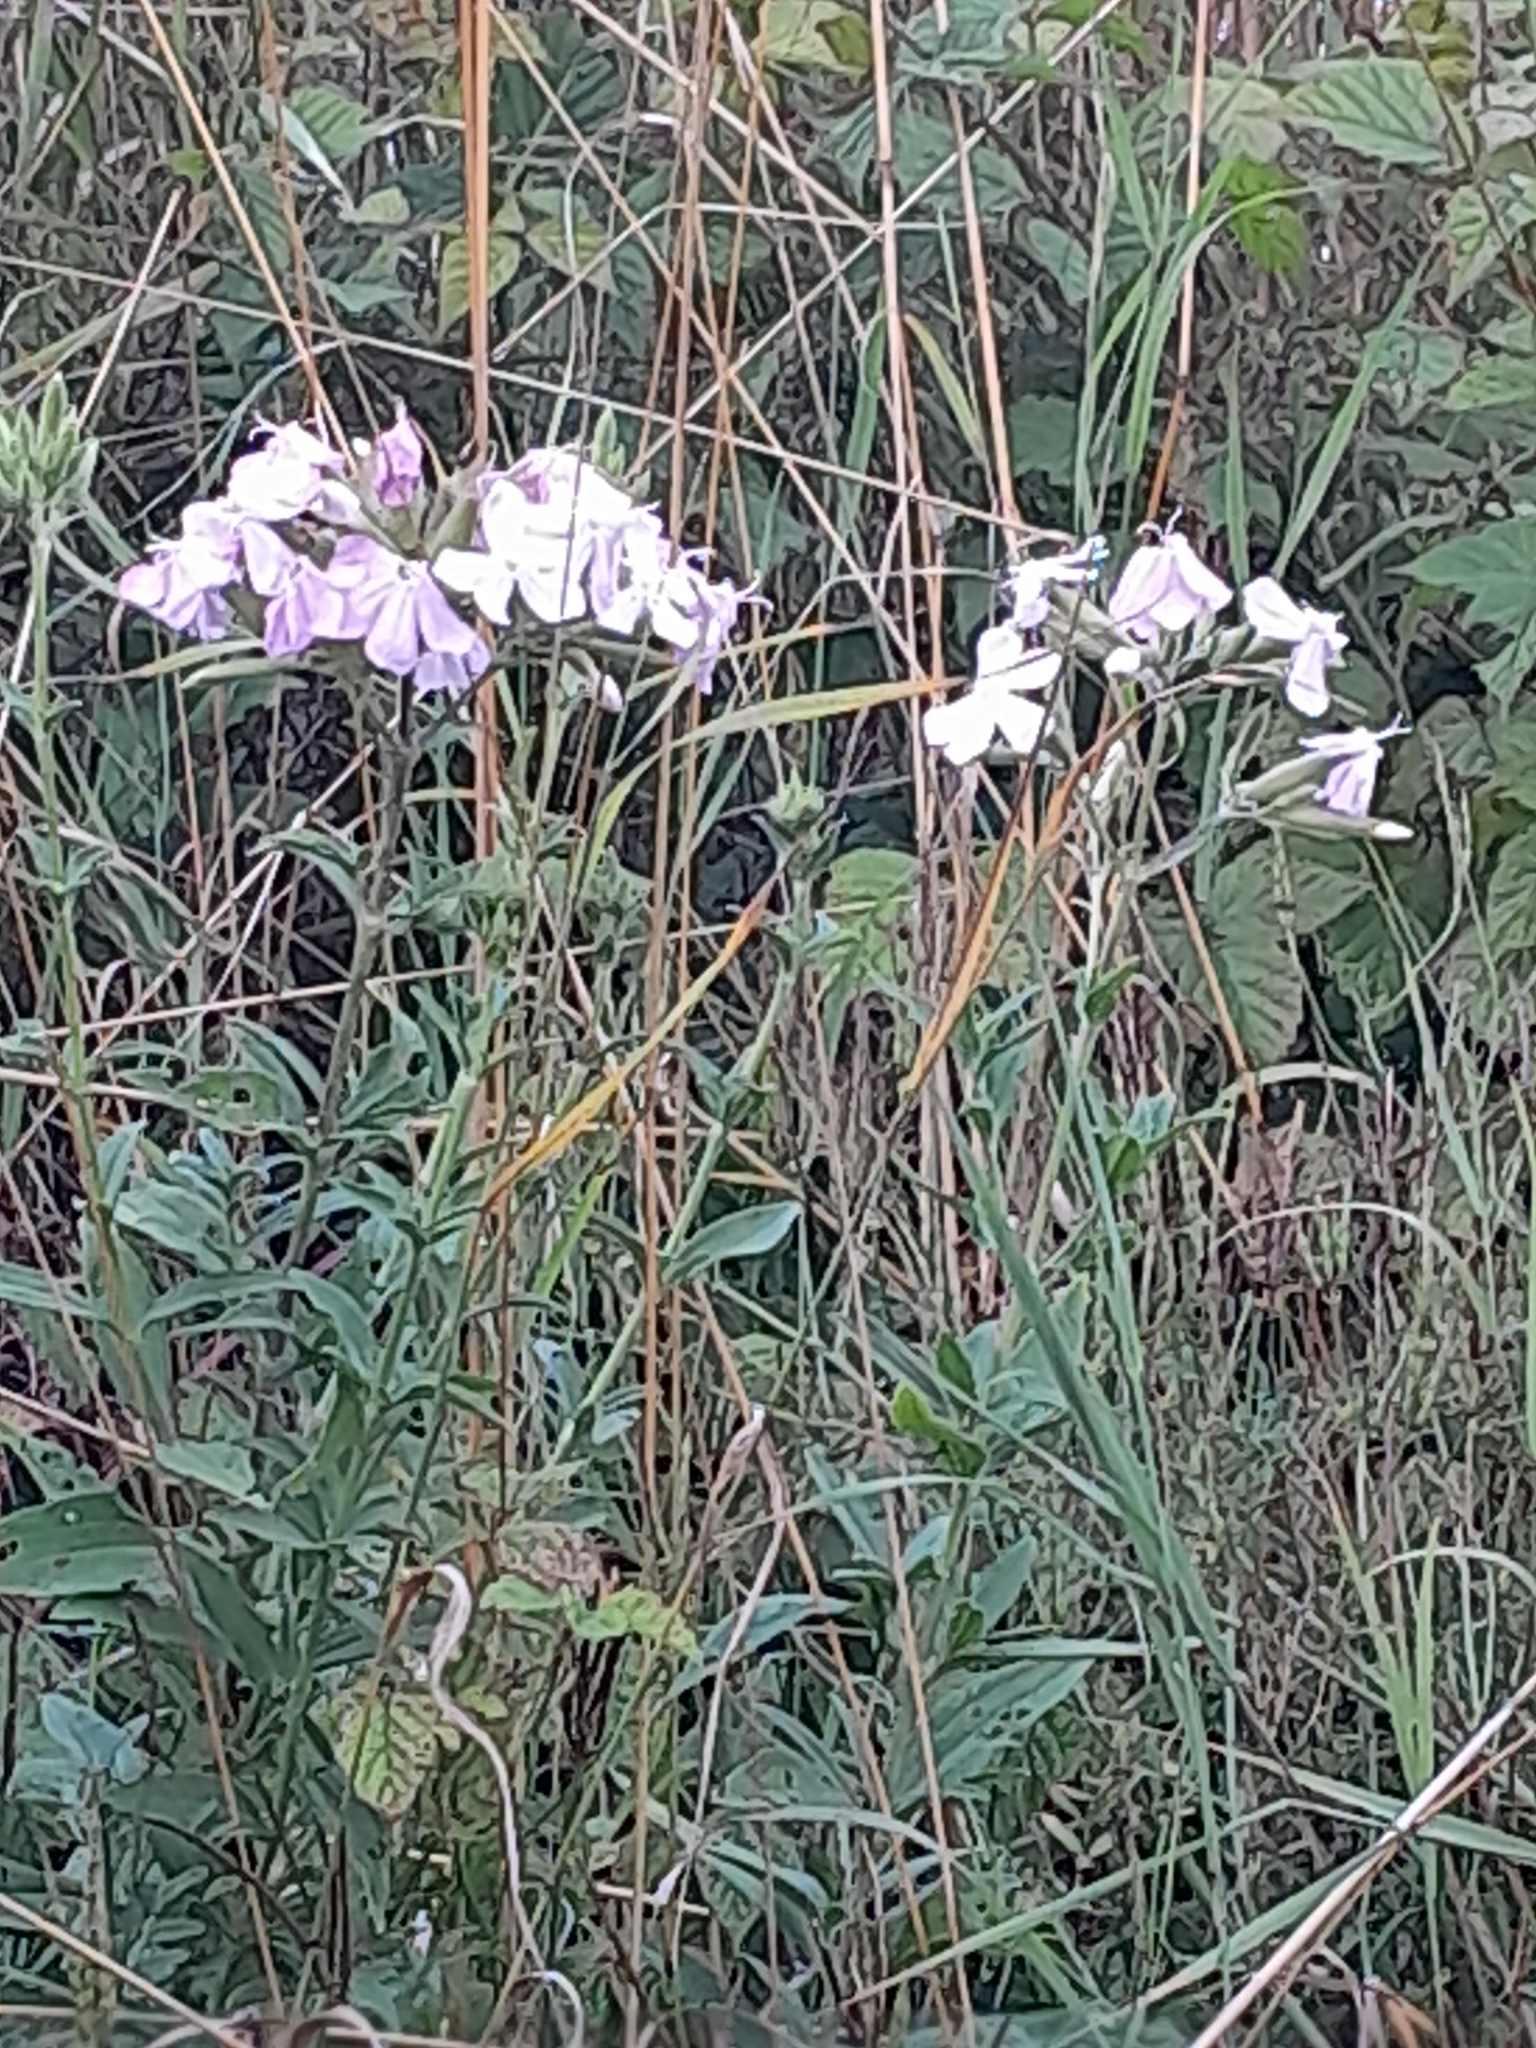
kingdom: Plantae
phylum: Tracheophyta
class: Magnoliopsida
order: Caryophyllales
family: Caryophyllaceae
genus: Saponaria
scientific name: Saponaria officinalis
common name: Soapwort
